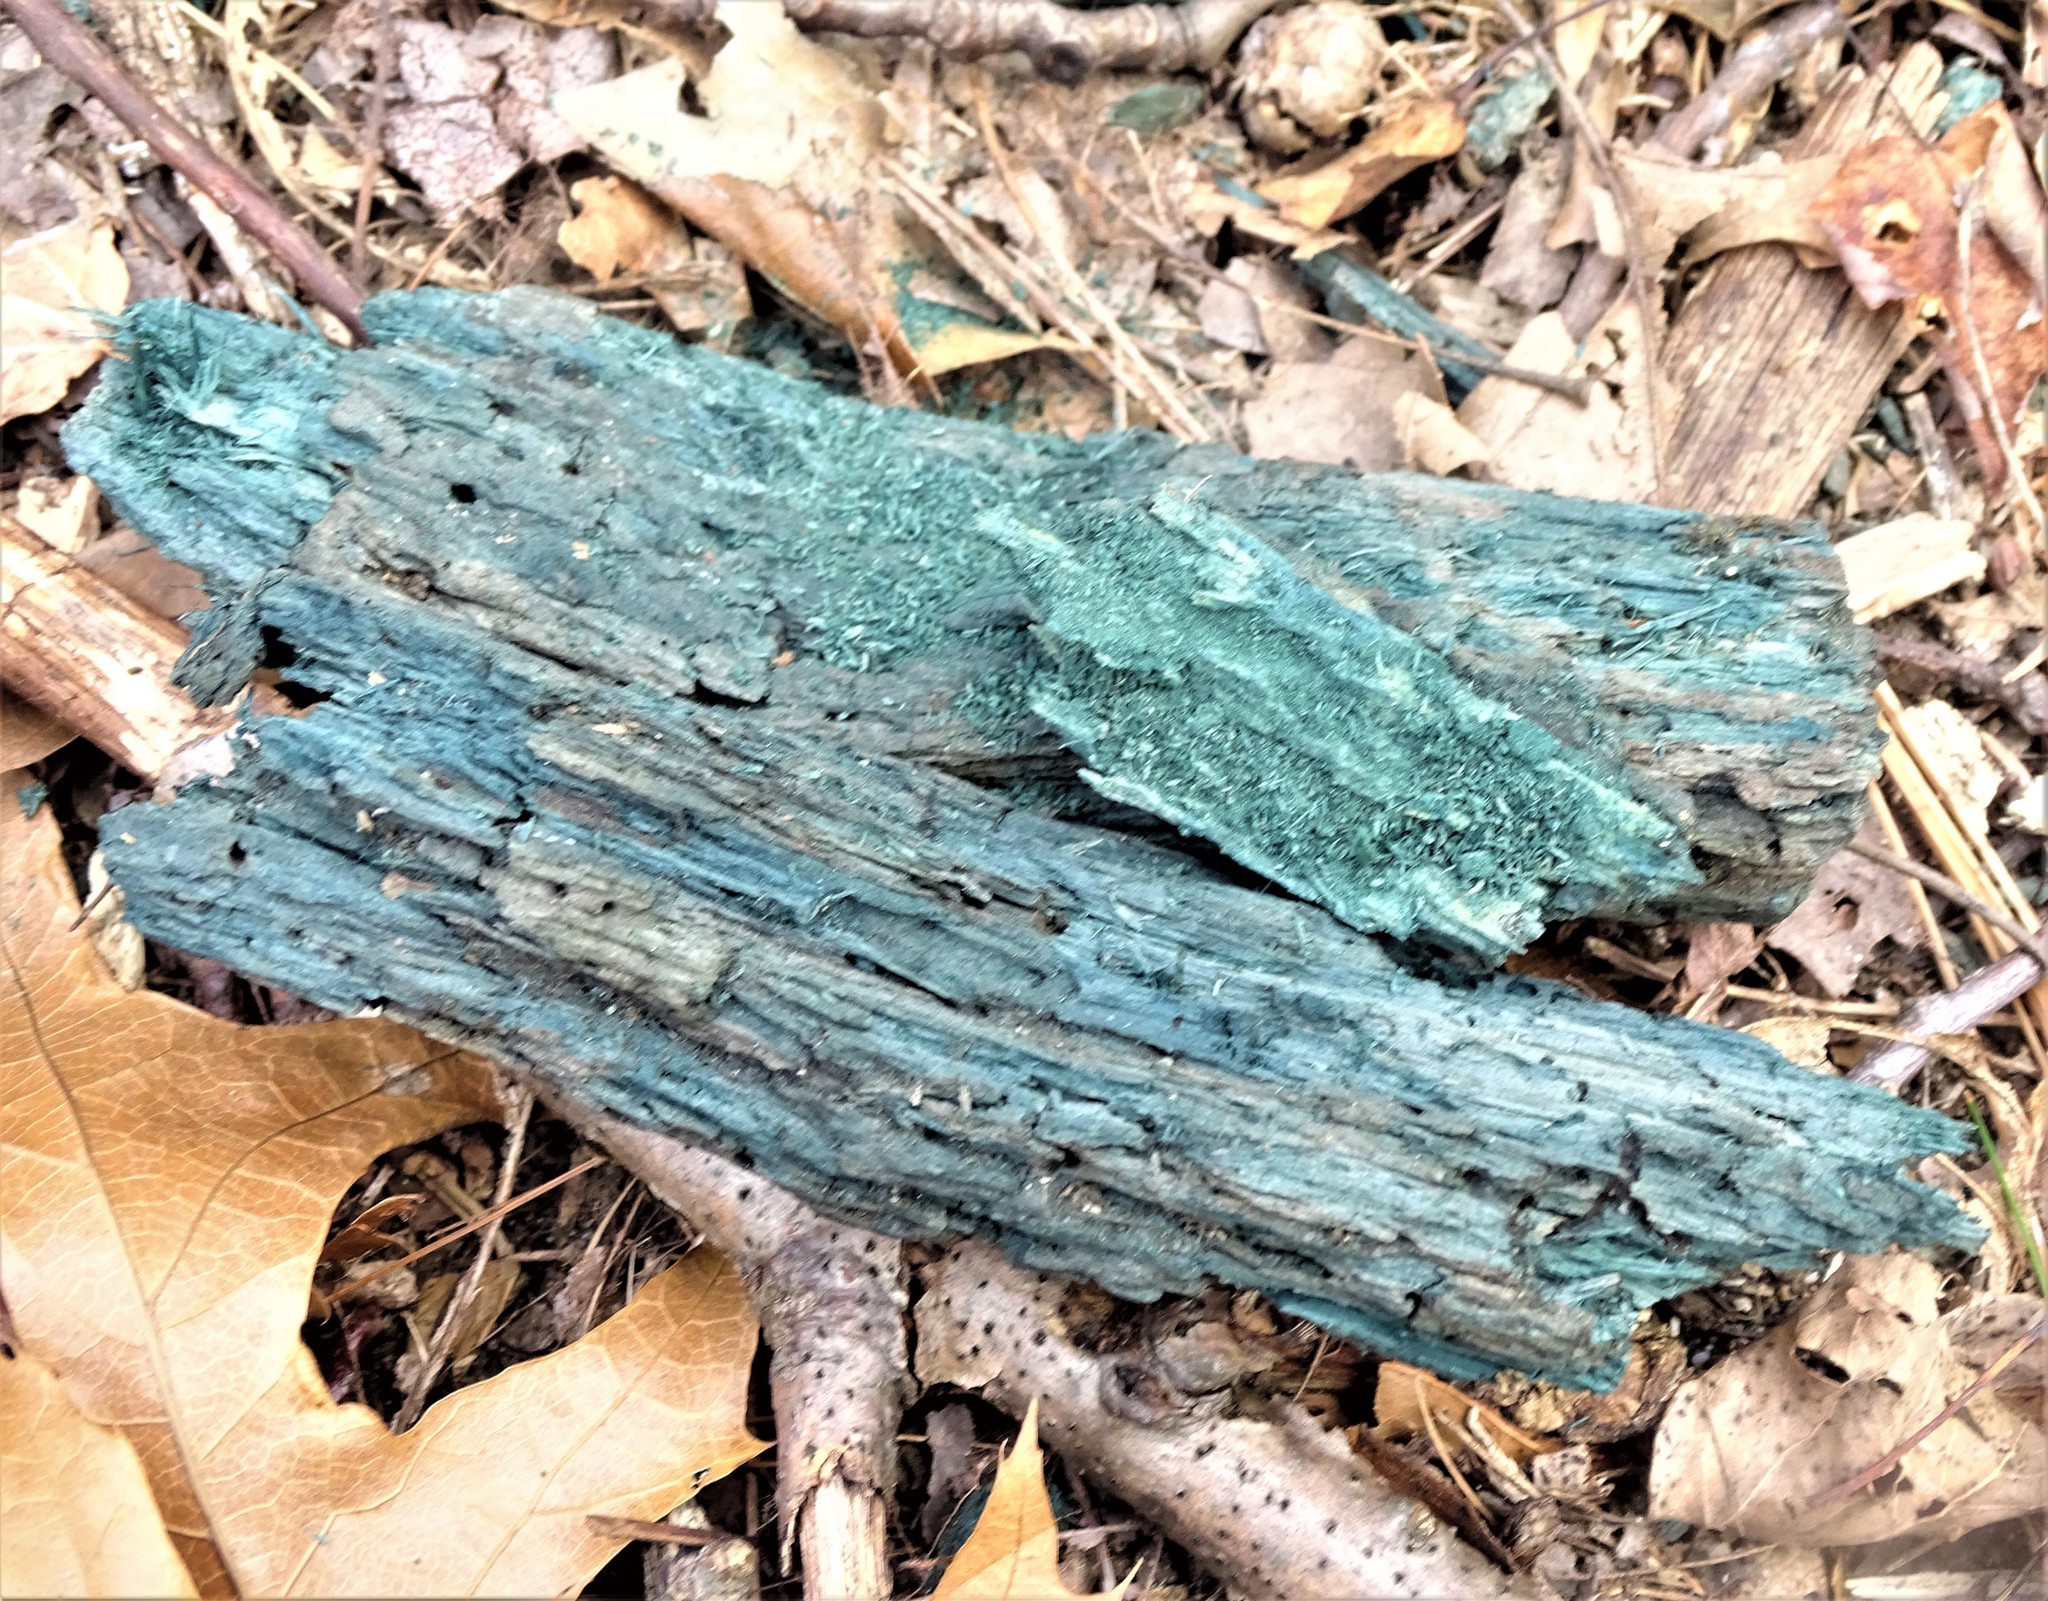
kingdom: Fungi
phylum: Ascomycota
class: Leotiomycetes
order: Helotiales
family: Chlorociboriaceae
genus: Chlorociboria
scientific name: Chlorociboria
